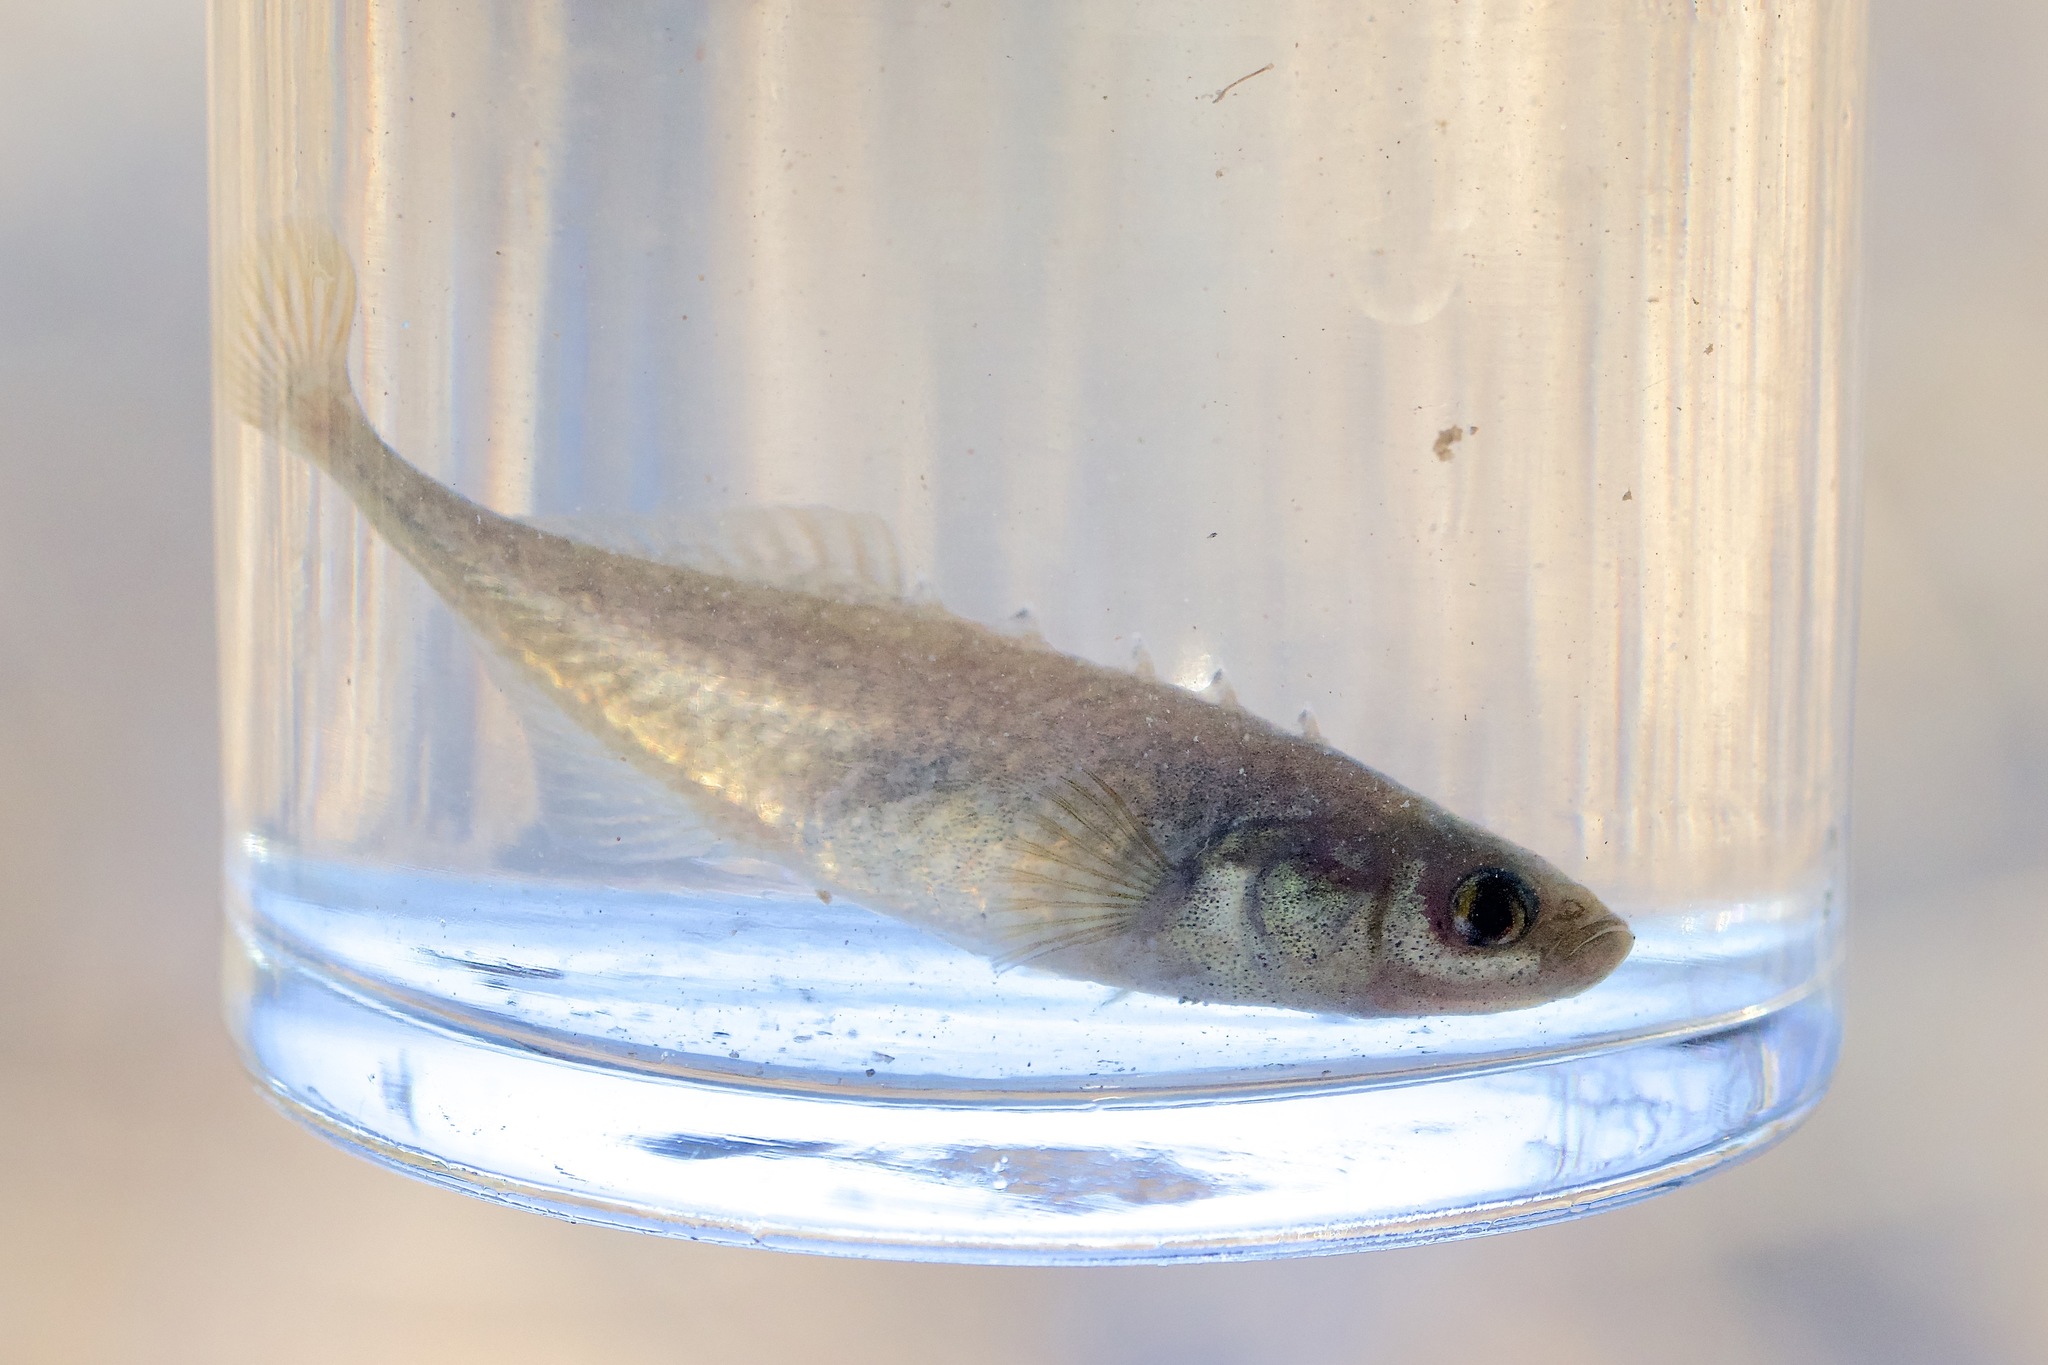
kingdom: Animalia
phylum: Chordata
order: Gasterosteiformes
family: Gasterosteidae
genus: Culaea
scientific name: Culaea inconstans
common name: Brook stickleback
